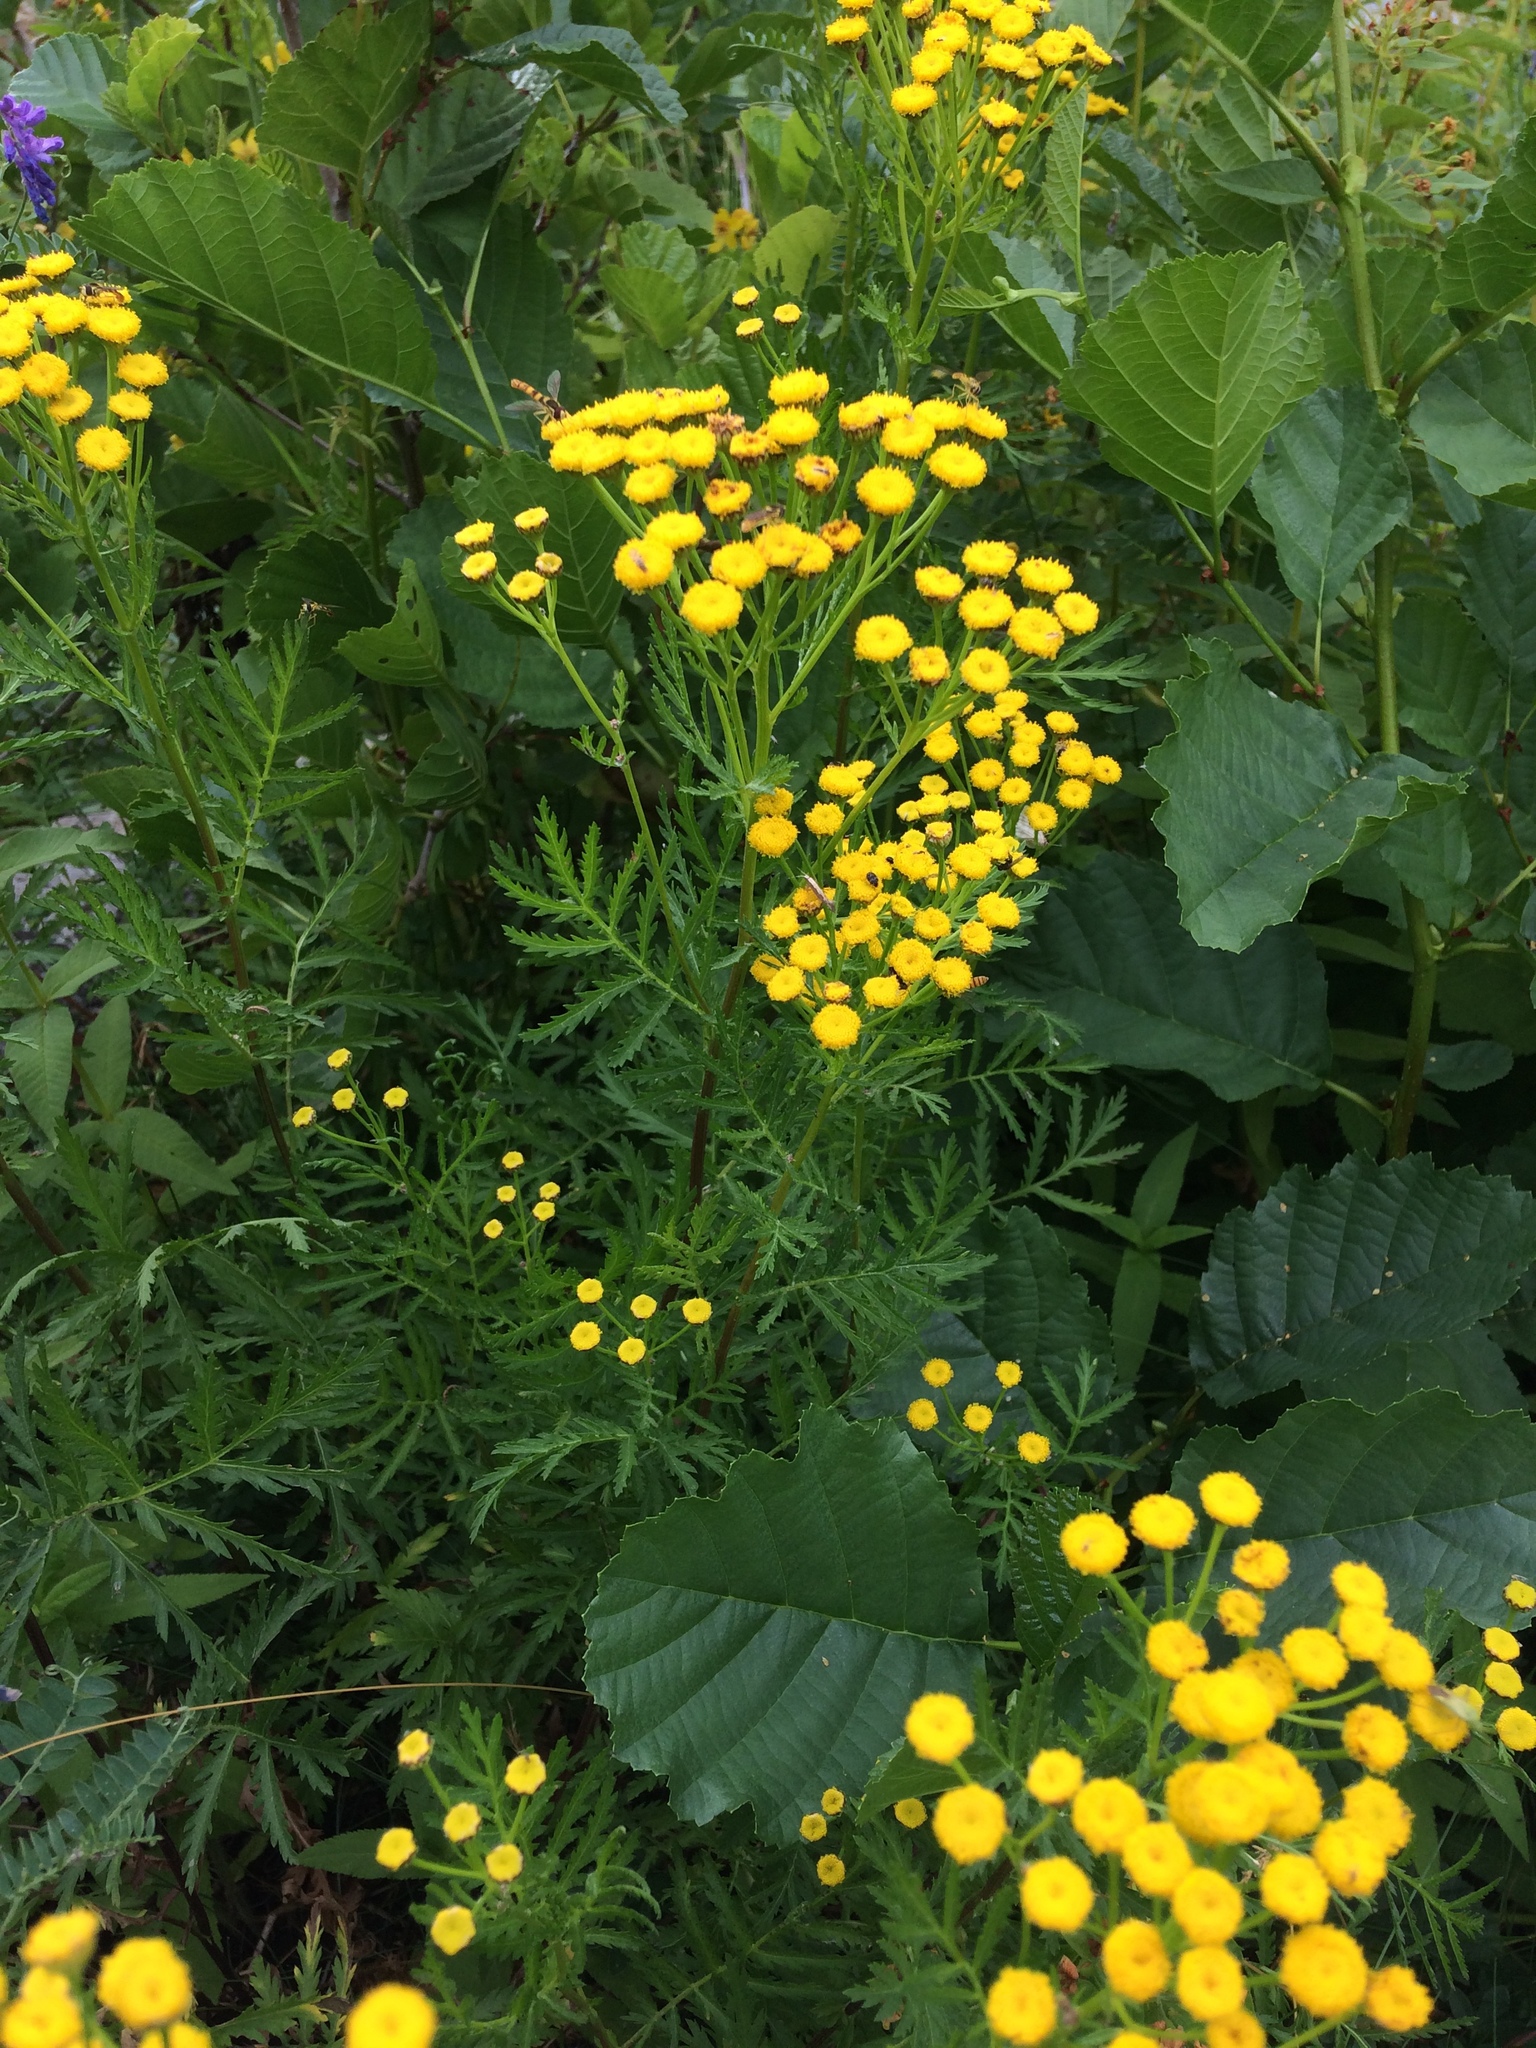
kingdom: Plantae
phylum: Tracheophyta
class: Magnoliopsida
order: Asterales
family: Asteraceae
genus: Tanacetum
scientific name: Tanacetum vulgare
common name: Common tansy
